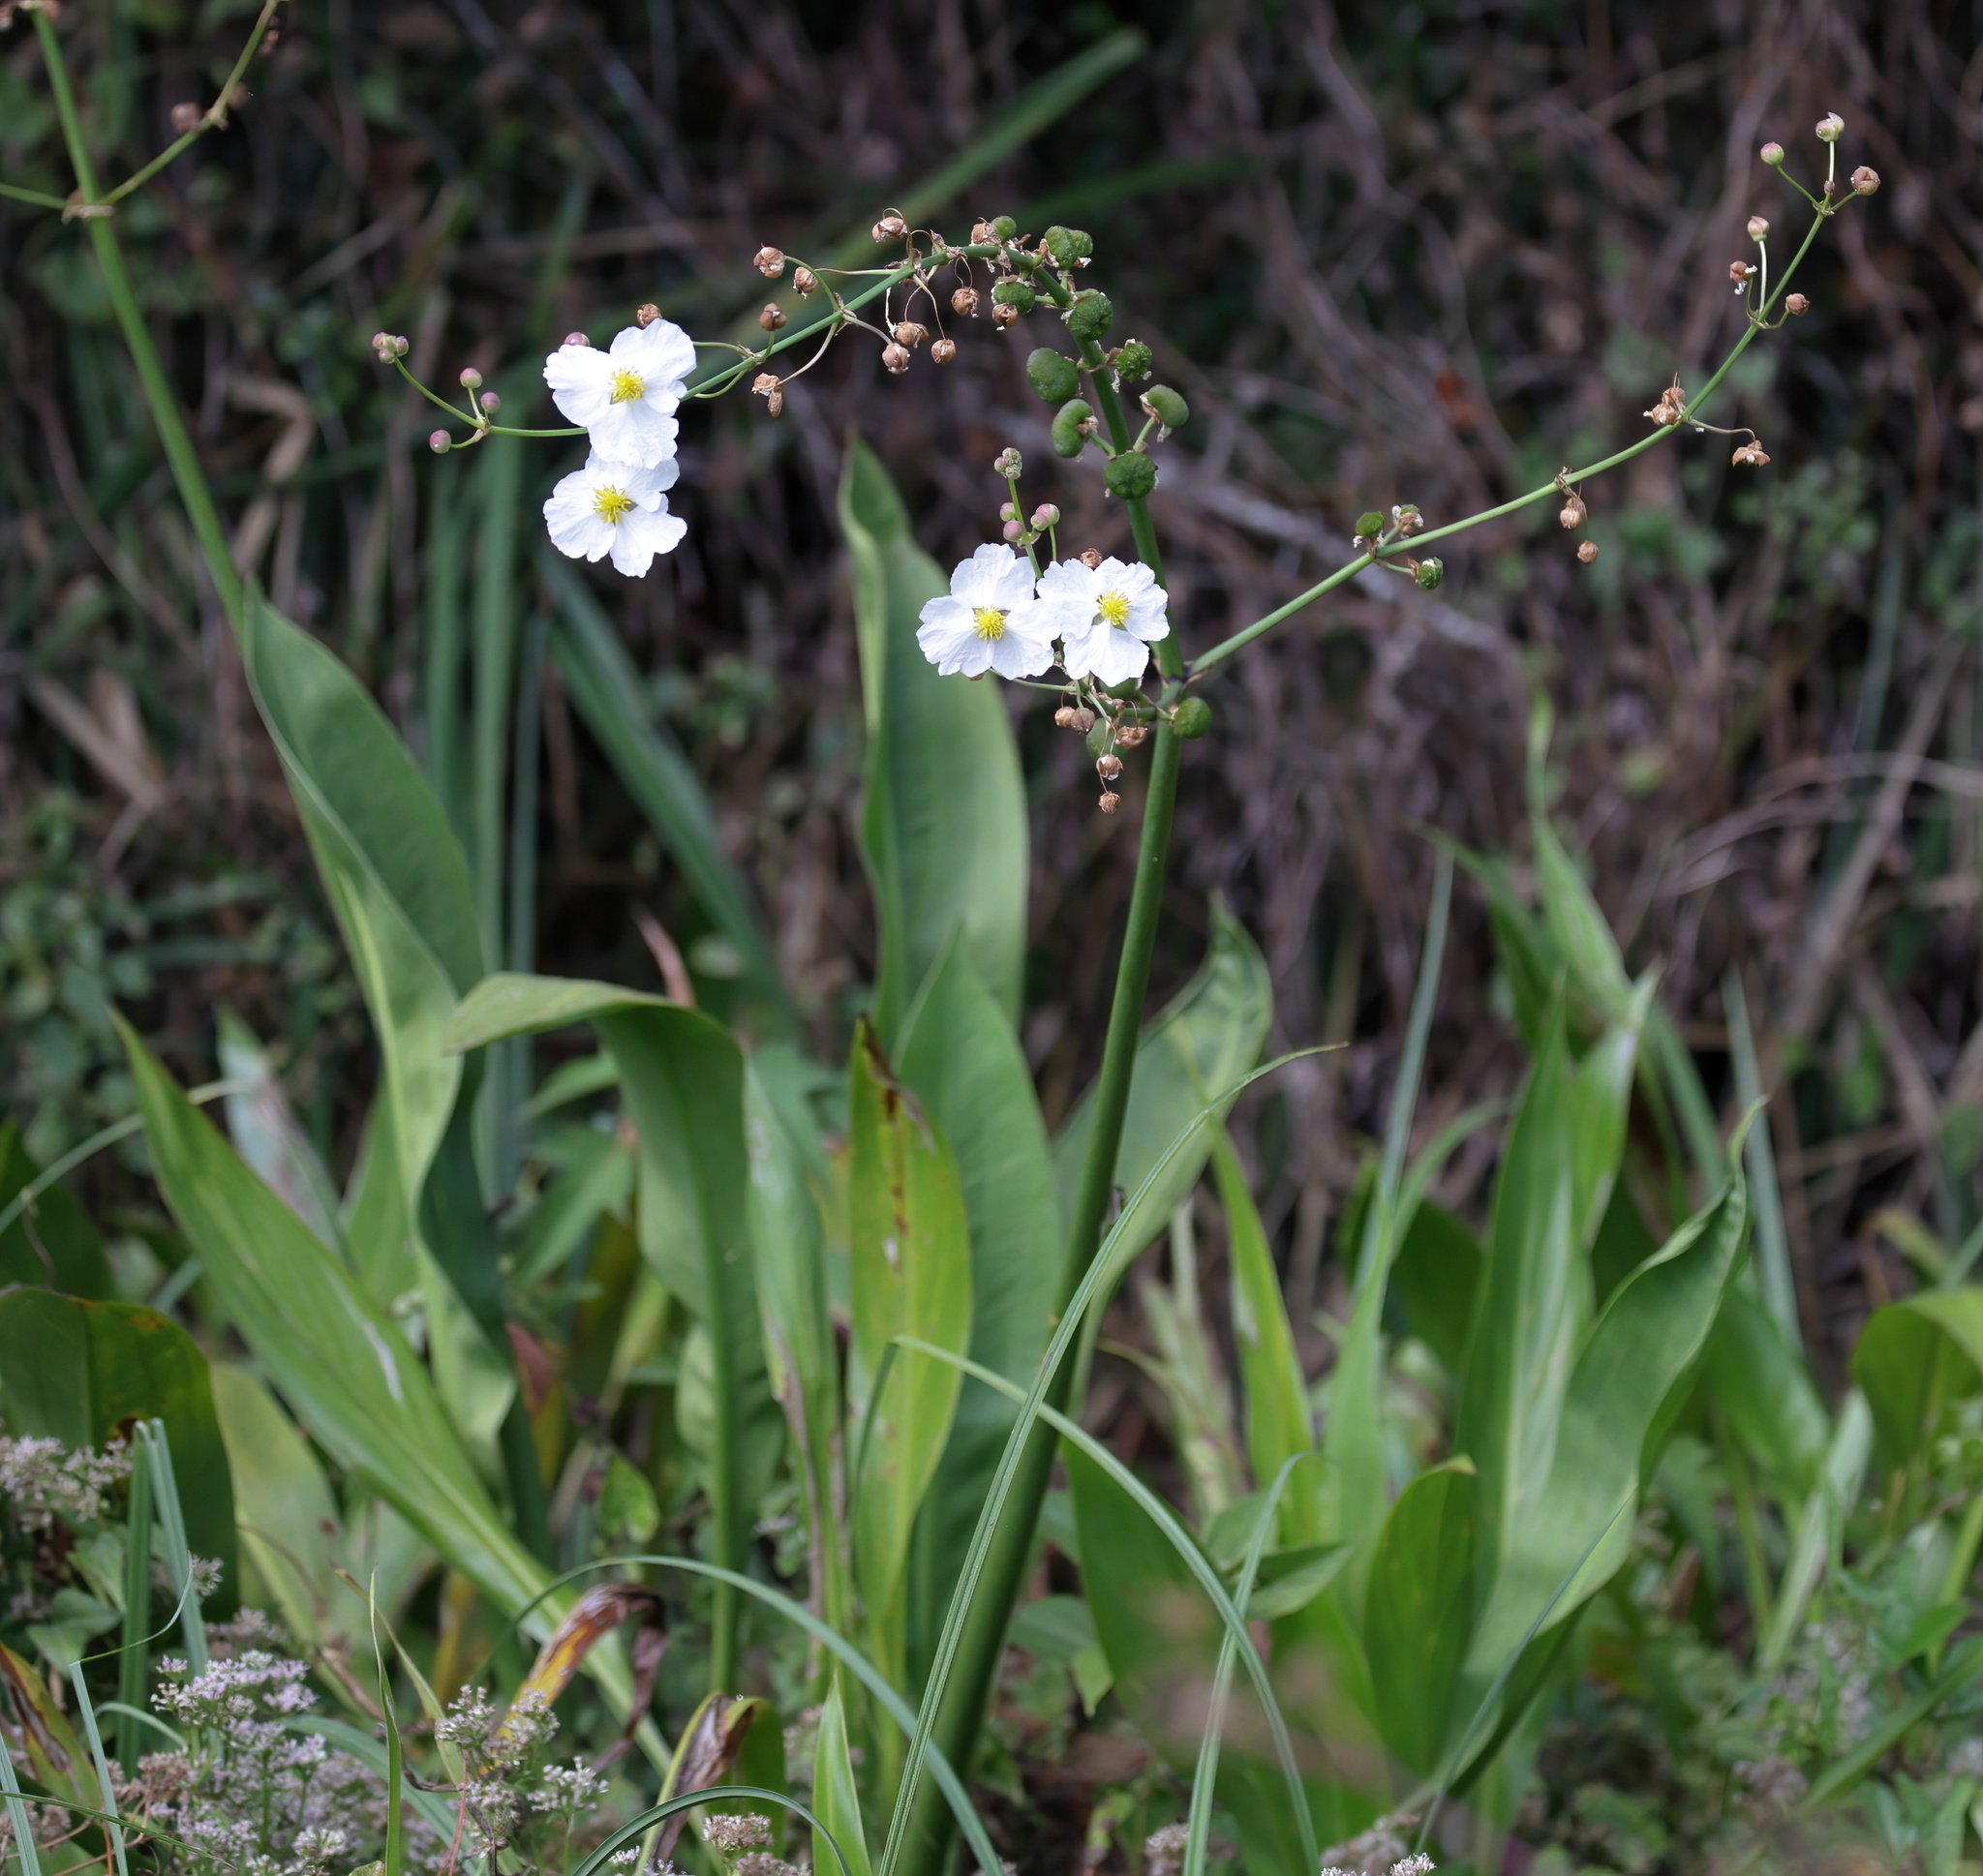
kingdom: Plantae
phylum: Tracheophyta
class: Liliopsida
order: Alismatales
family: Alismataceae
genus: Sagittaria
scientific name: Sagittaria lancifolia
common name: Lance-leaf arrowhead
